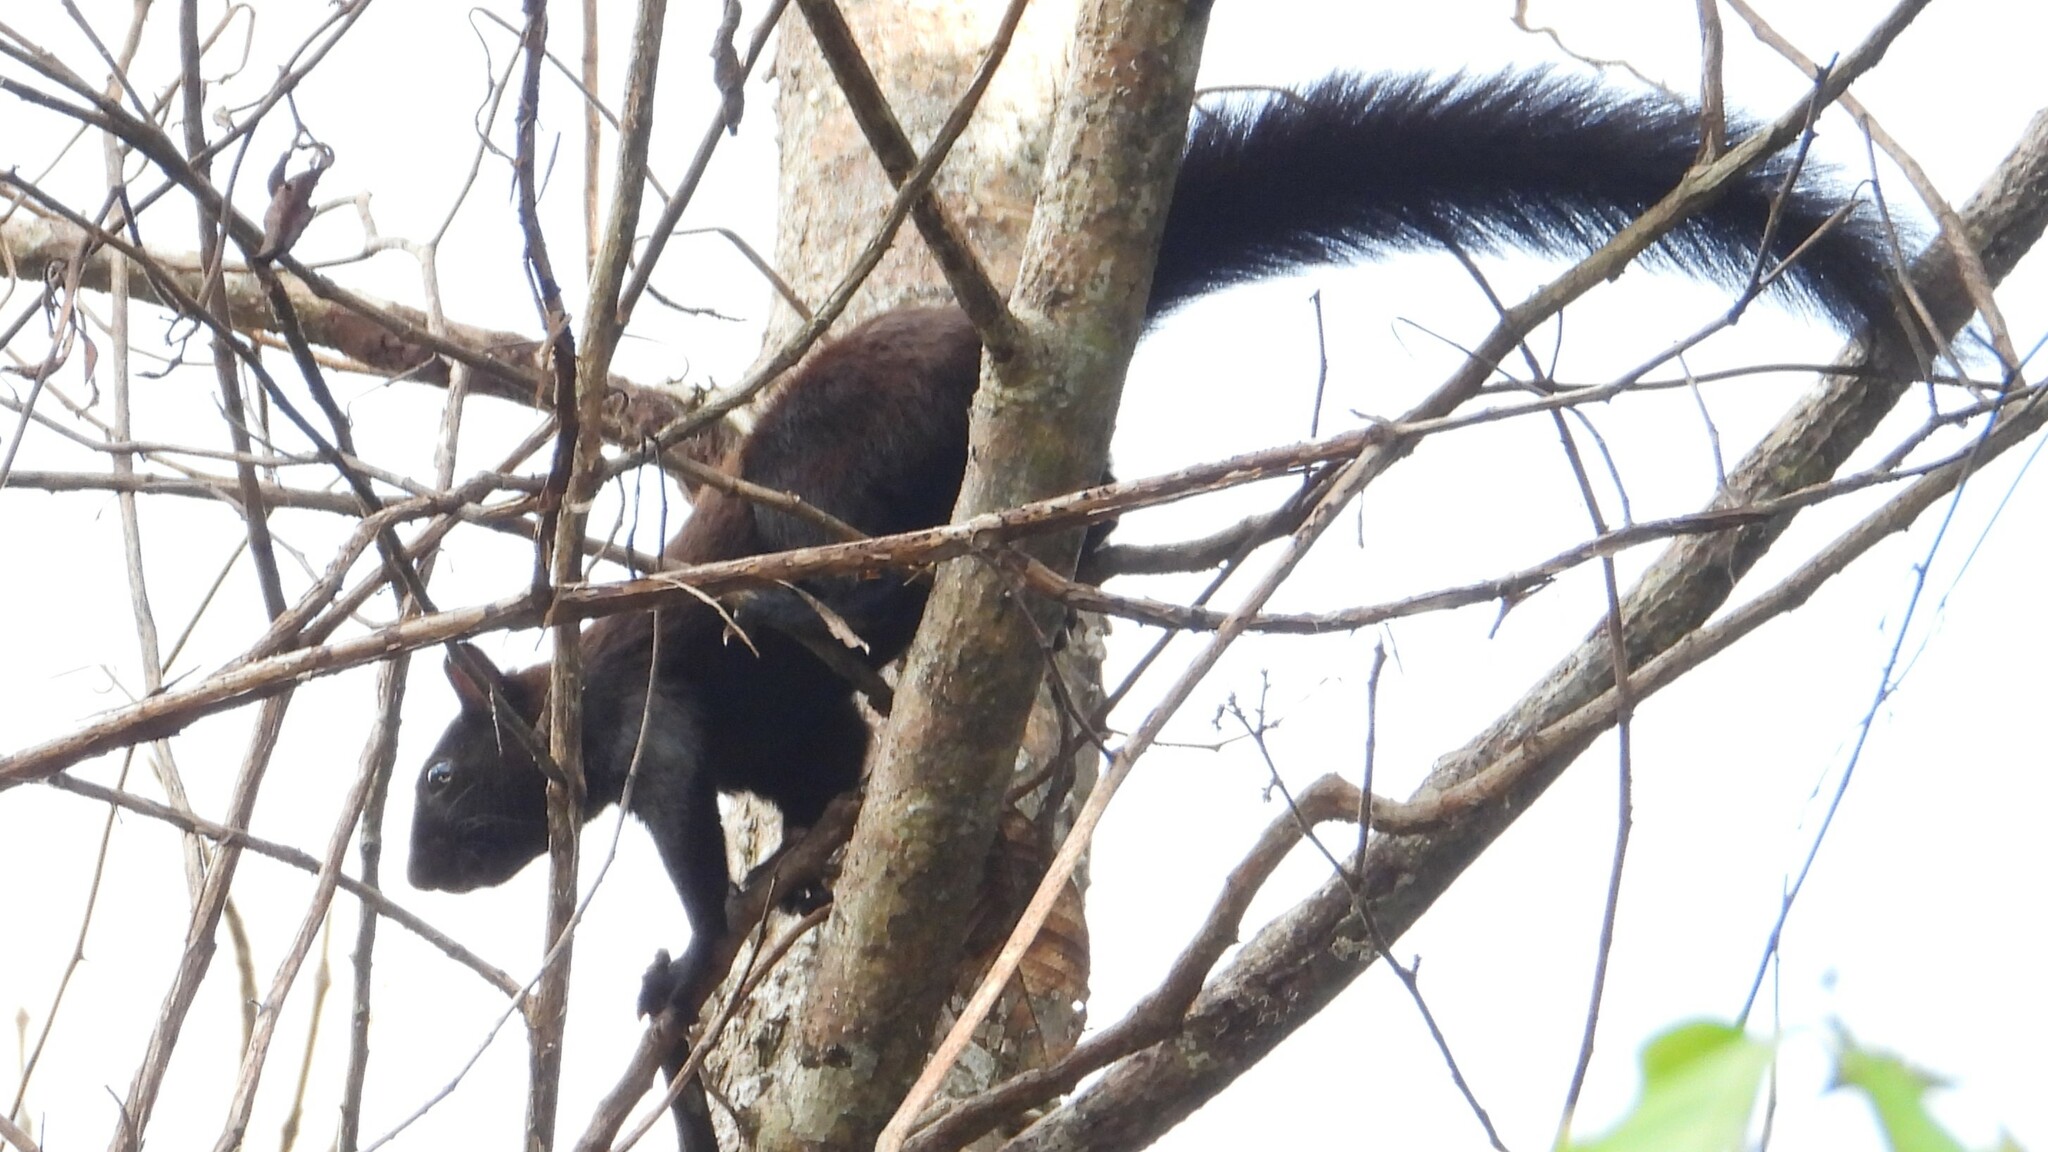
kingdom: Animalia
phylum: Chordata
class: Mammalia
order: Rodentia
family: Sciuridae
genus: Sciurus
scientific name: Sciurus variegatoides
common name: Variegated squirrel
